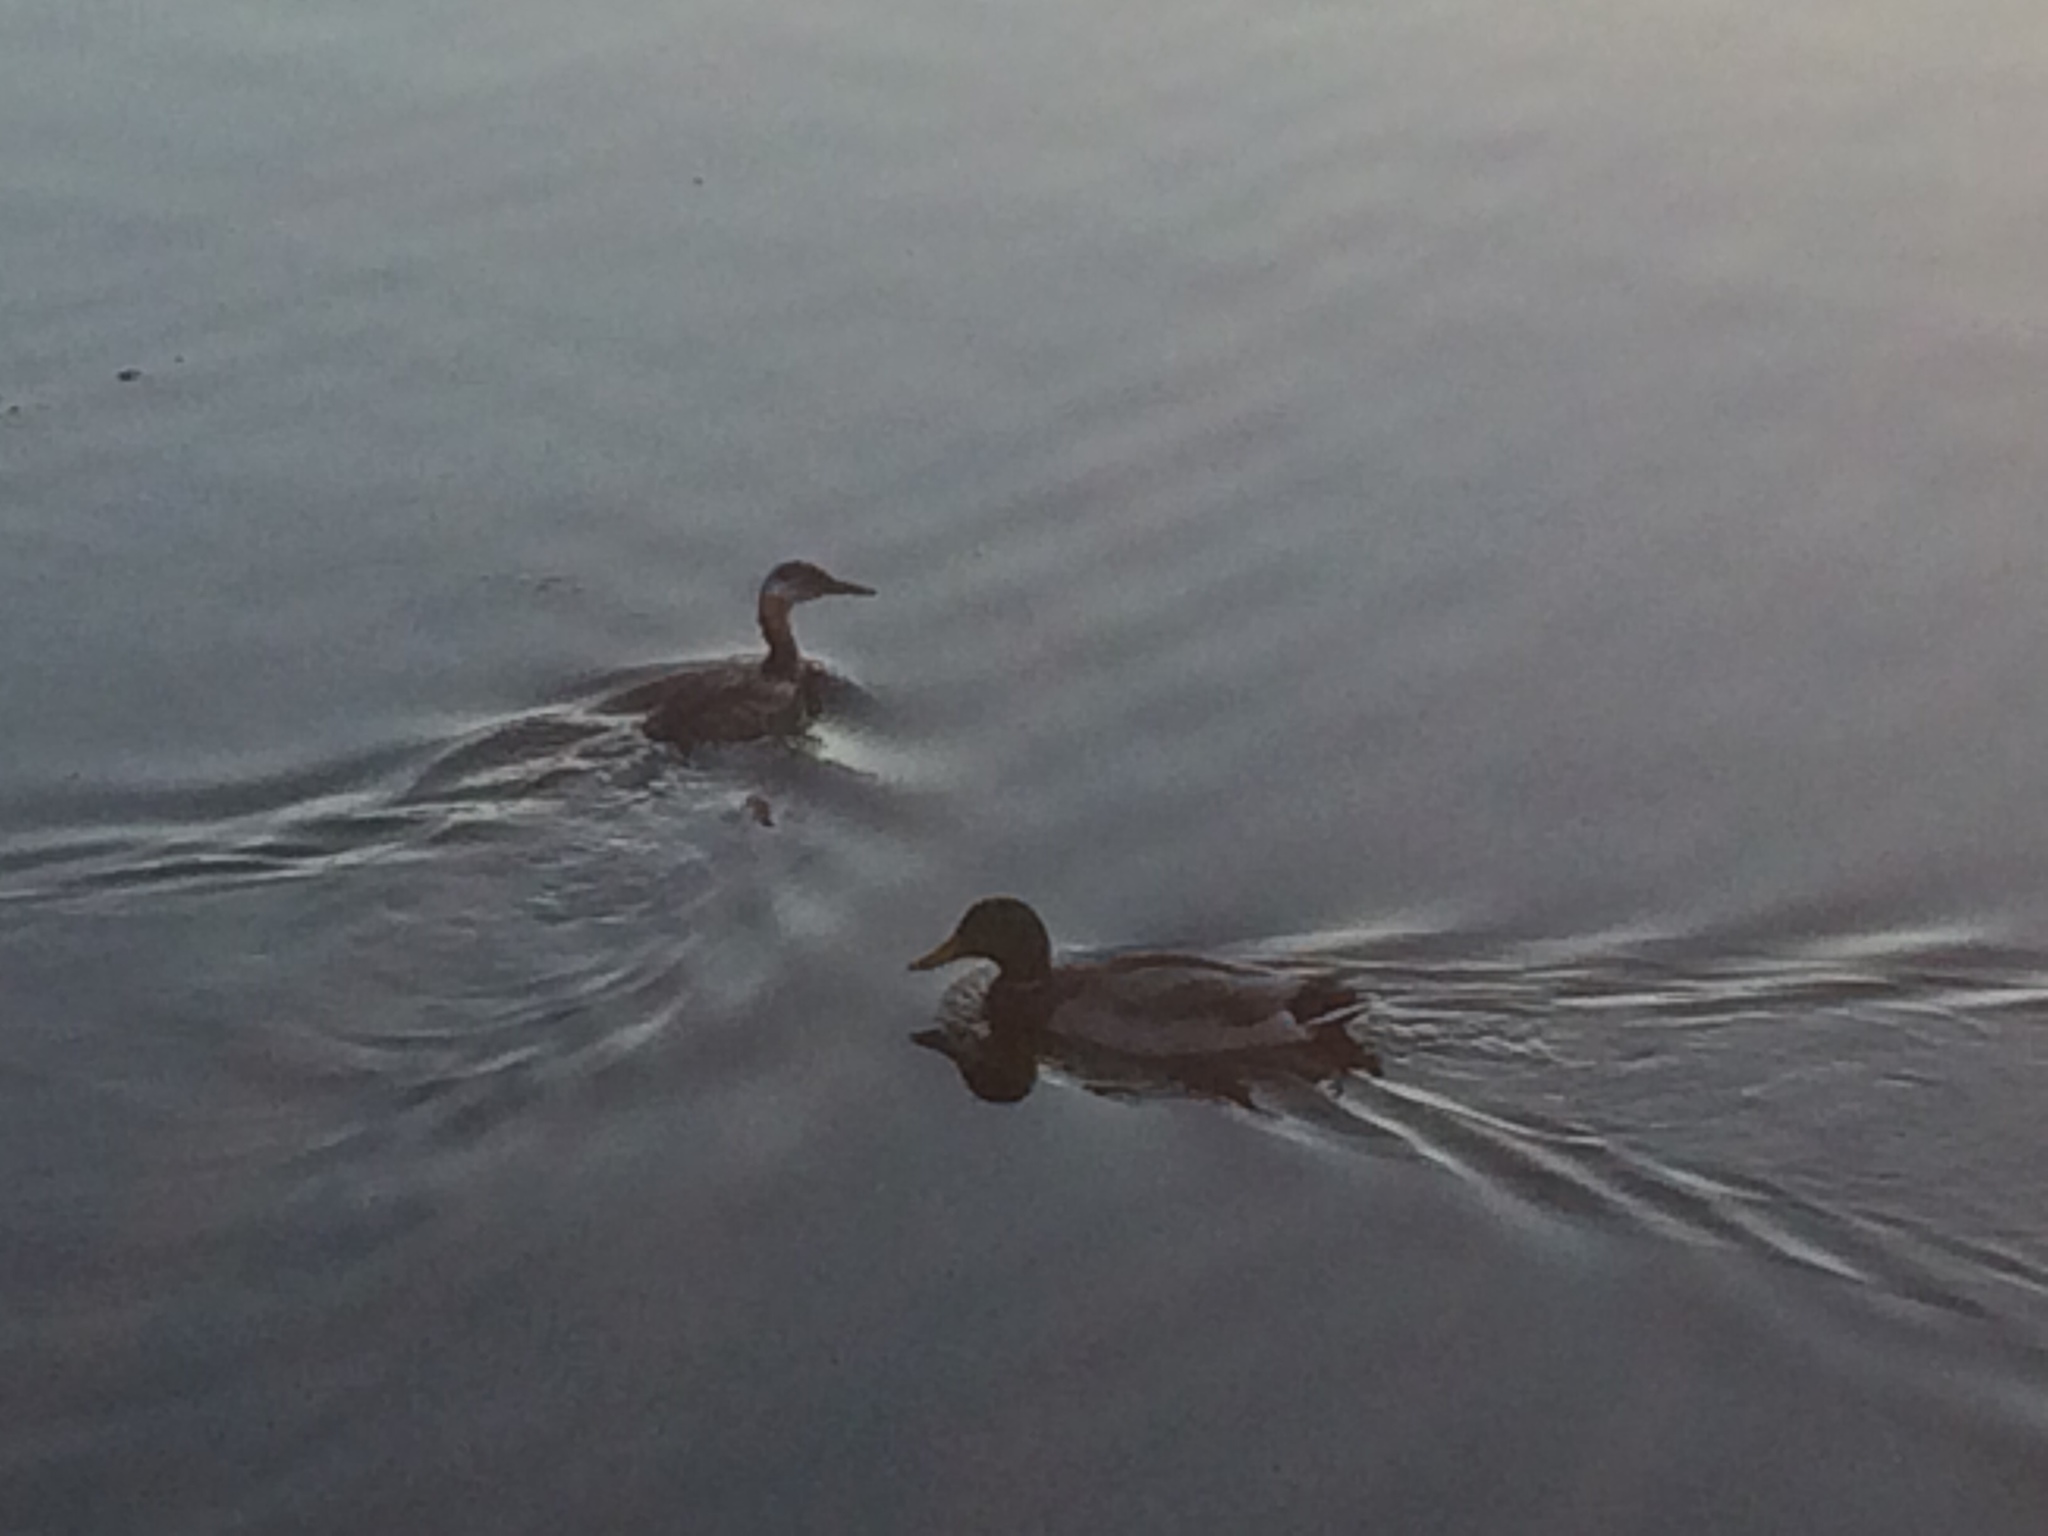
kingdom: Animalia
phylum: Chordata
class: Aves
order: Anseriformes
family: Anatidae
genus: Anas
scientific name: Anas platyrhynchos
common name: Mallard
